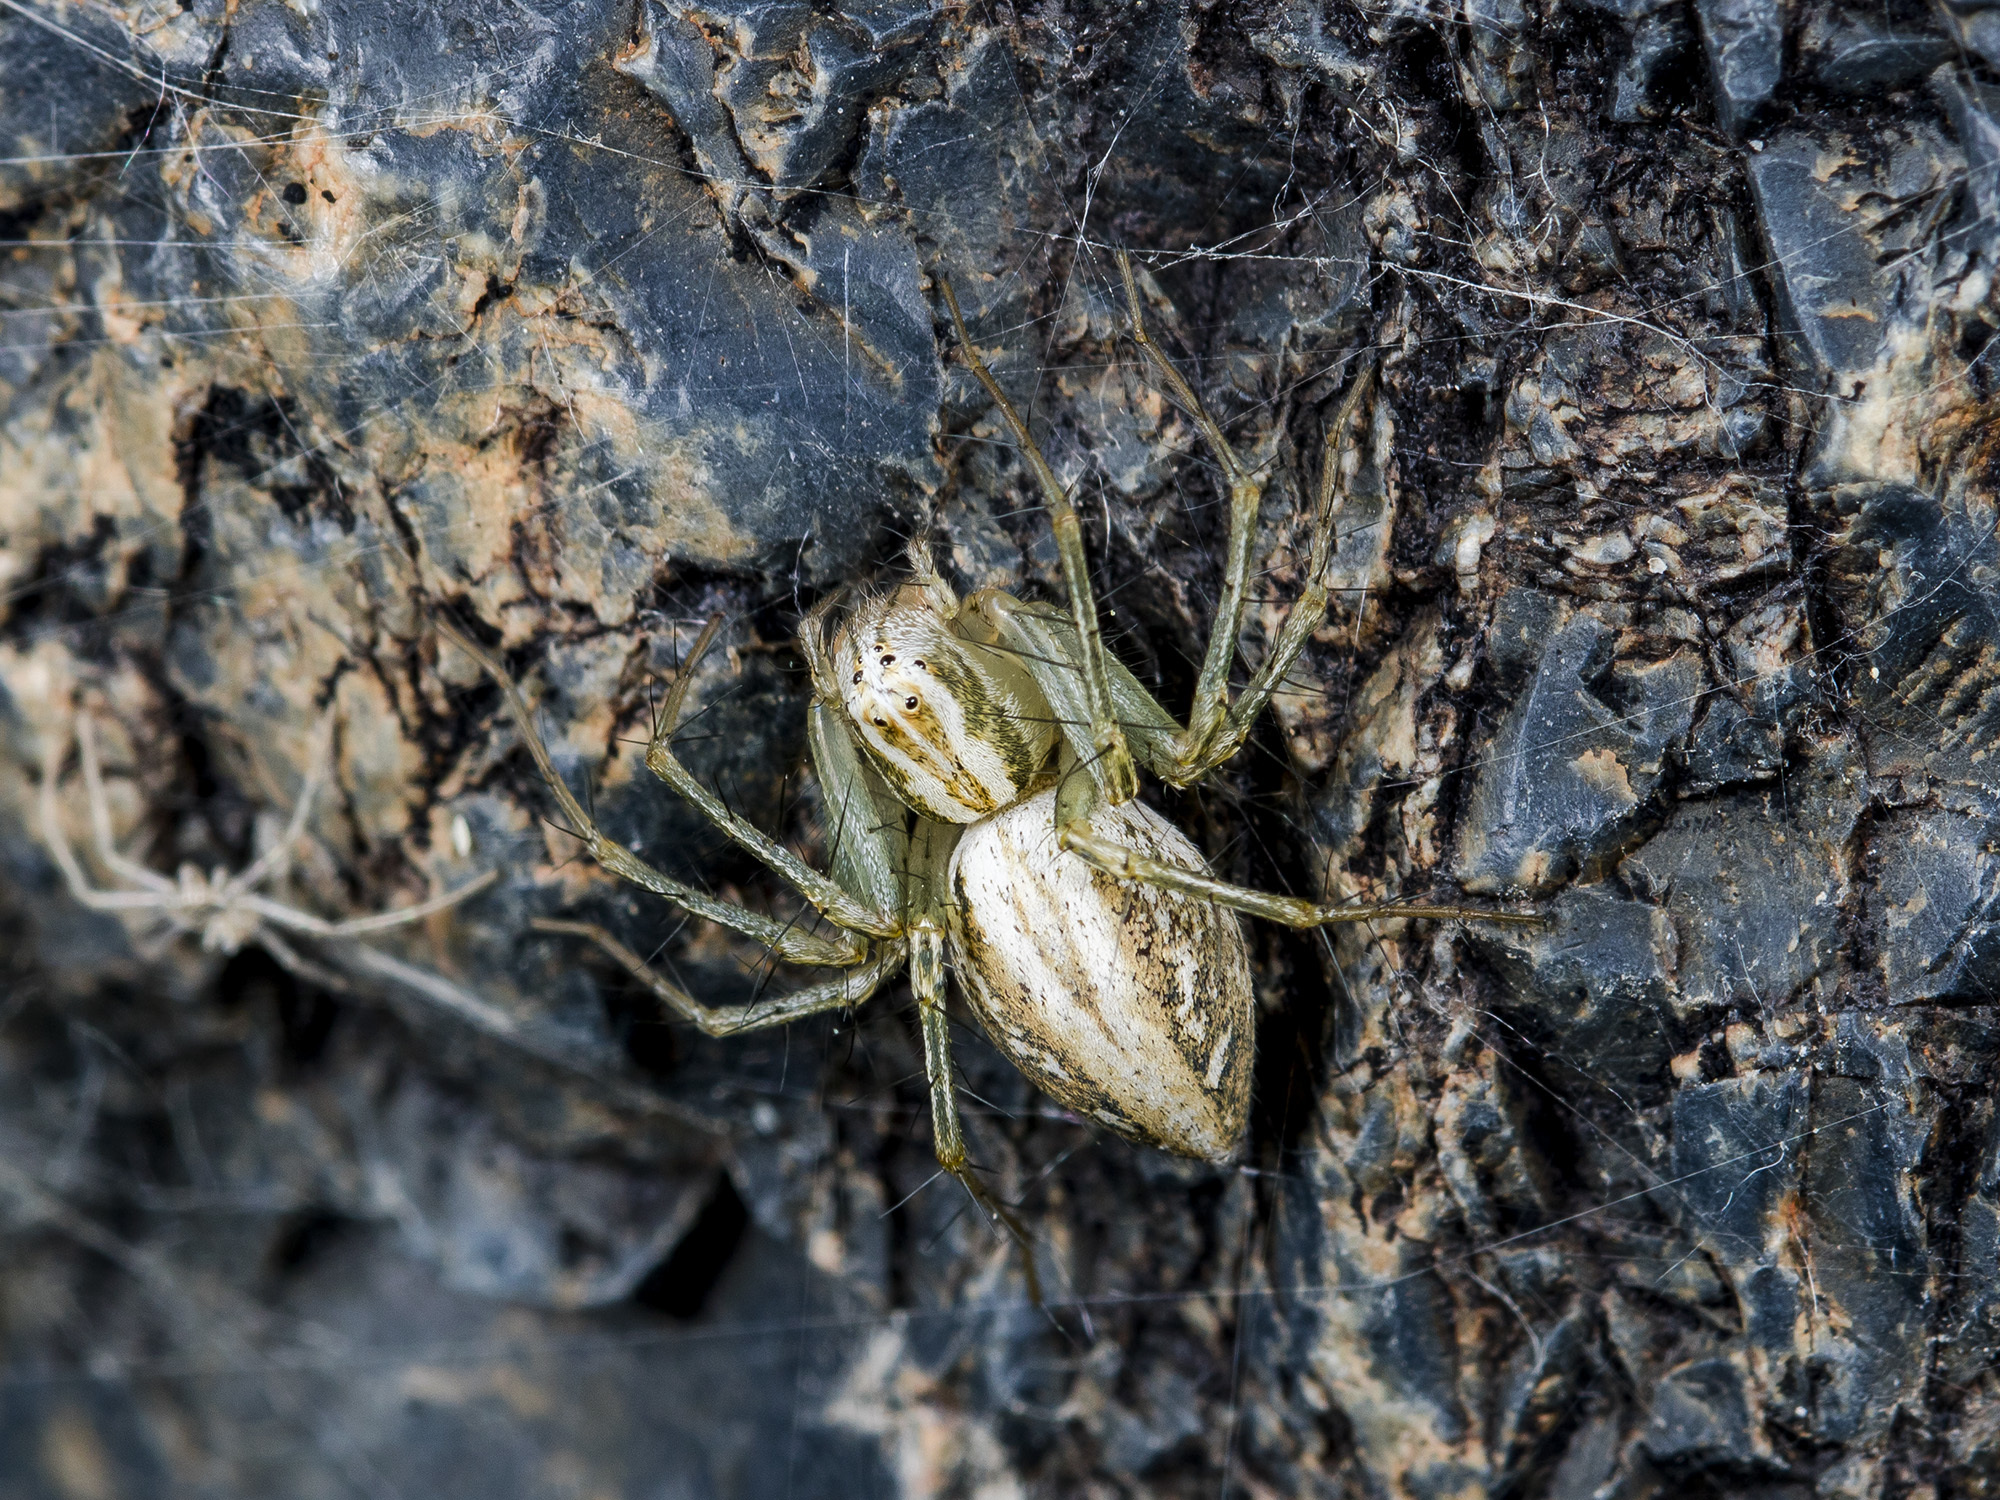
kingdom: Animalia
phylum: Arthropoda
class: Arachnida
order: Araneae
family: Oxyopidae
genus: Oxyopes
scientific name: Oxyopes lineatus
